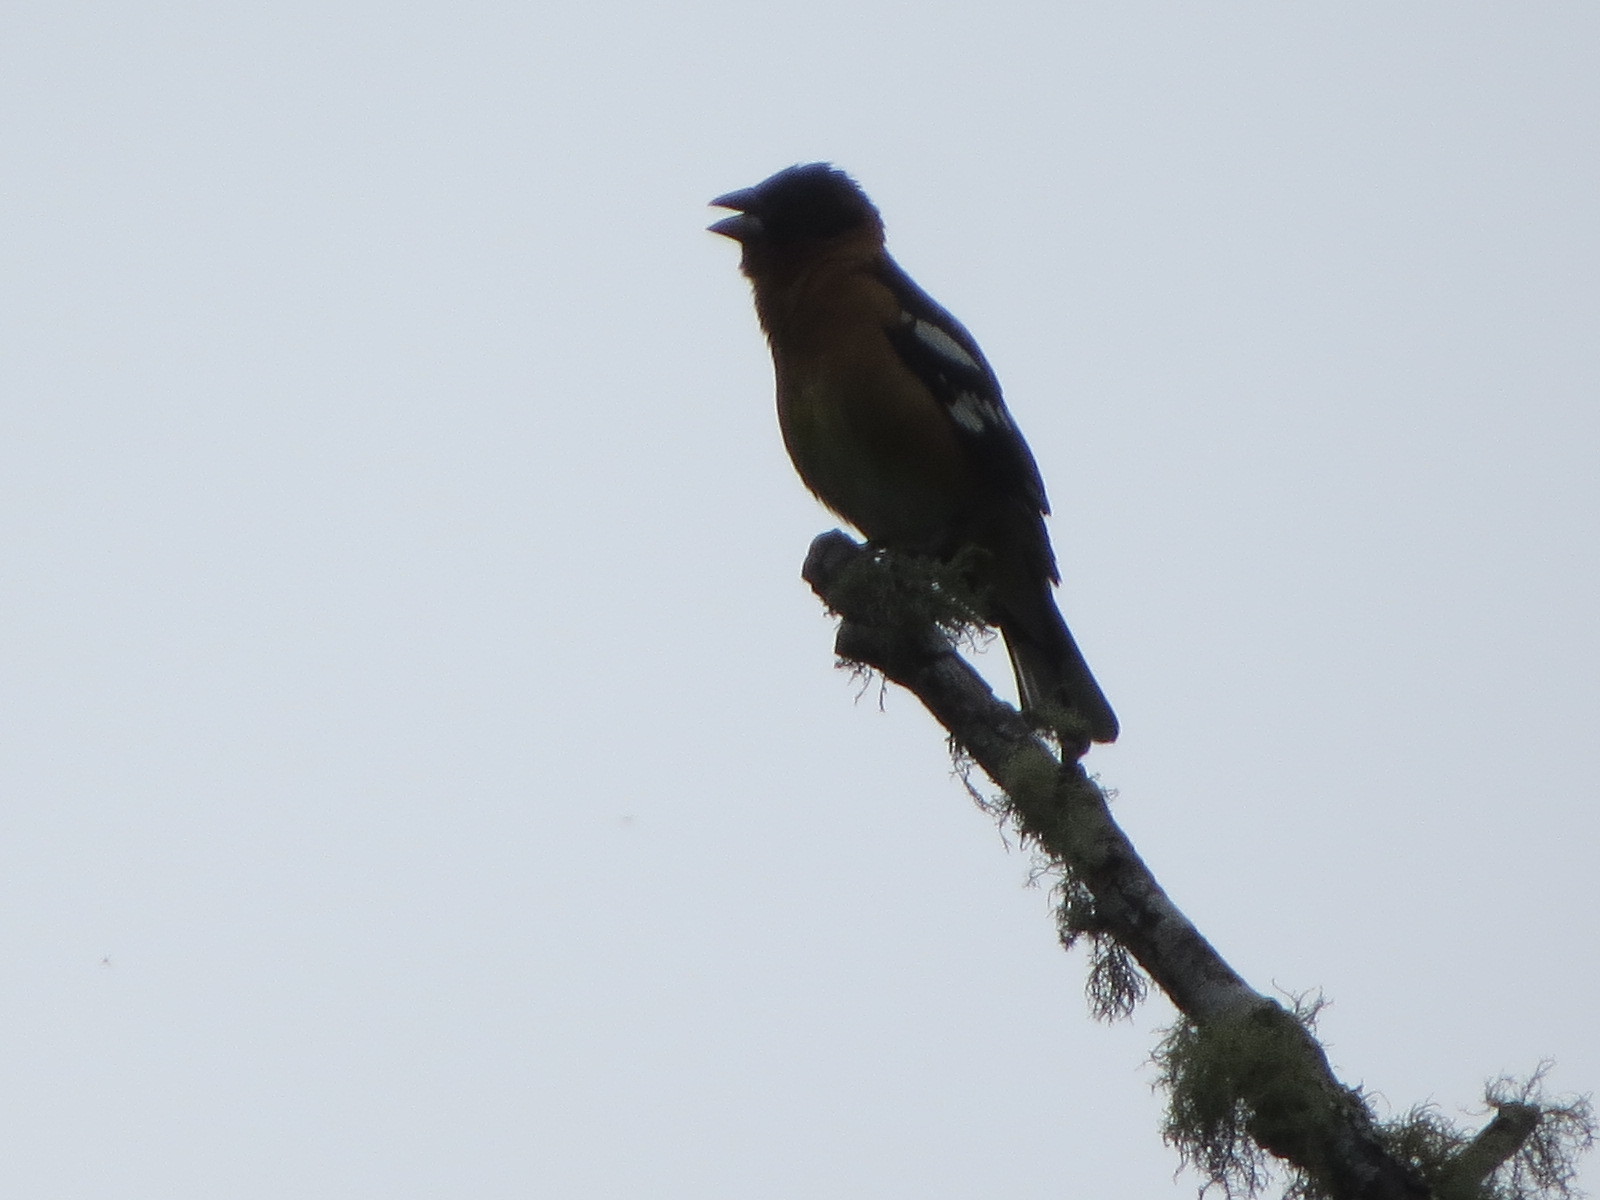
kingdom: Animalia
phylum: Chordata
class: Aves
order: Passeriformes
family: Cardinalidae
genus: Pheucticus
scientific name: Pheucticus melanocephalus
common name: Black-headed grosbeak
